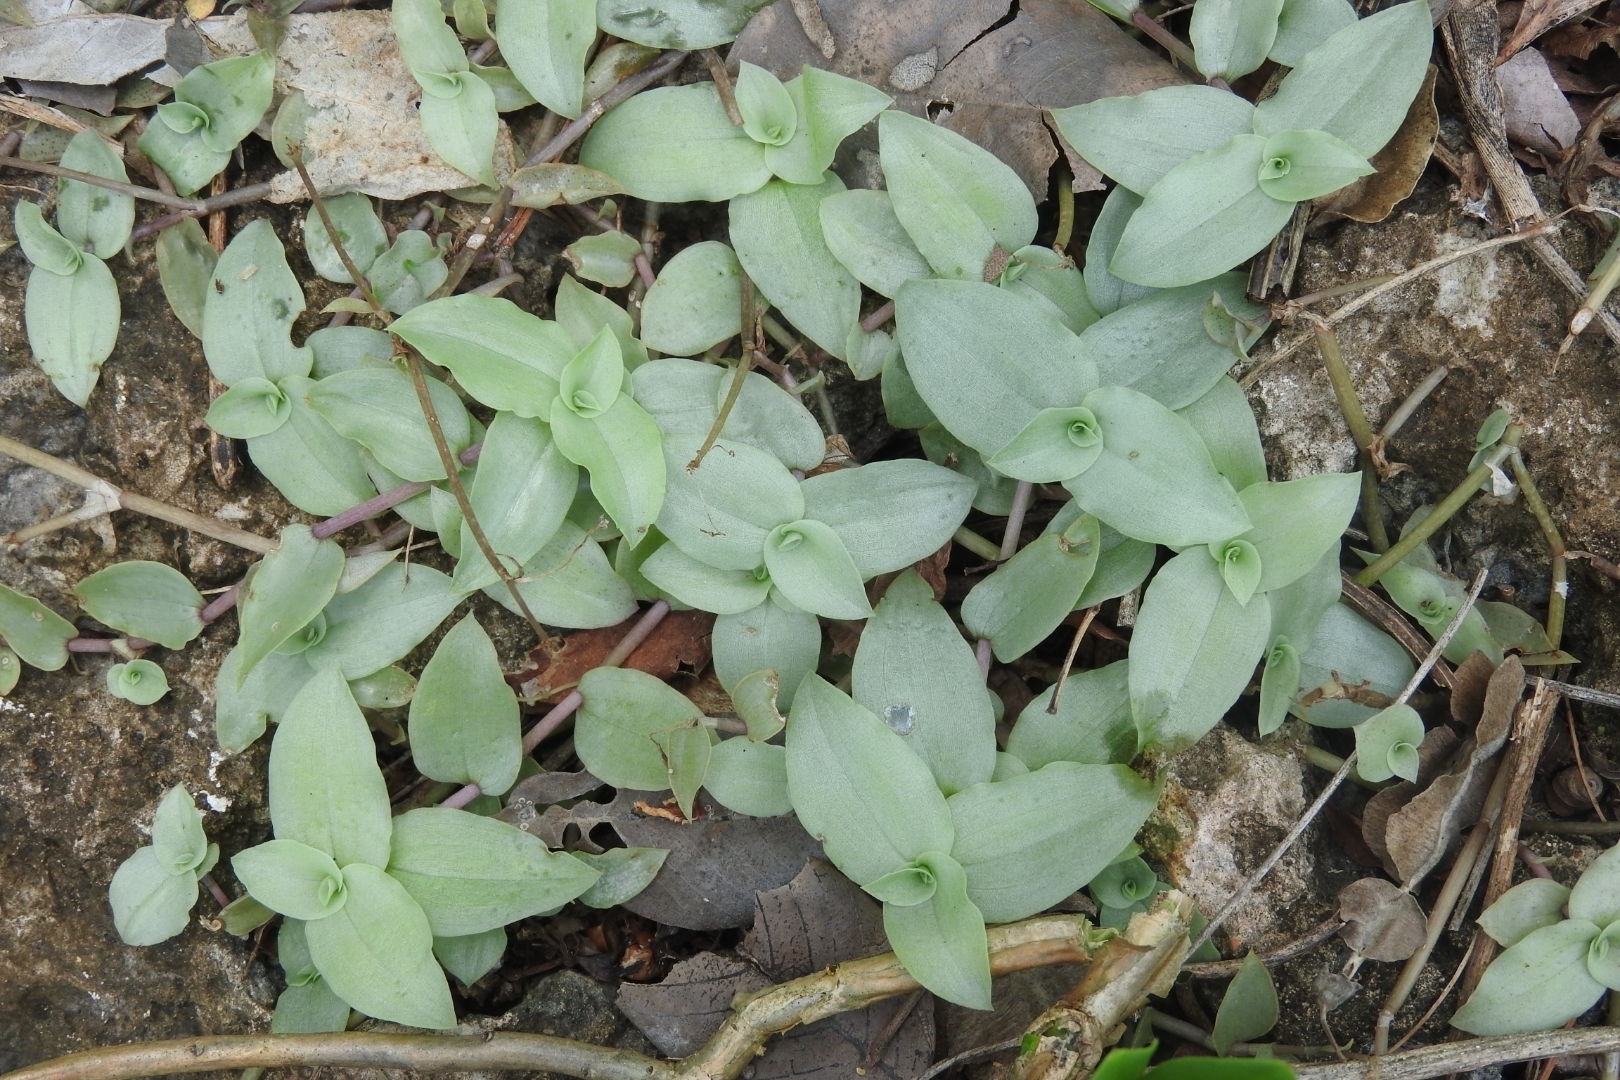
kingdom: Plantae
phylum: Tracheophyta
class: Liliopsida
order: Commelinales
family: Commelinaceae
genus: Tradescantia
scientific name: Tradescantia fluminensis
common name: Wandering-jew
